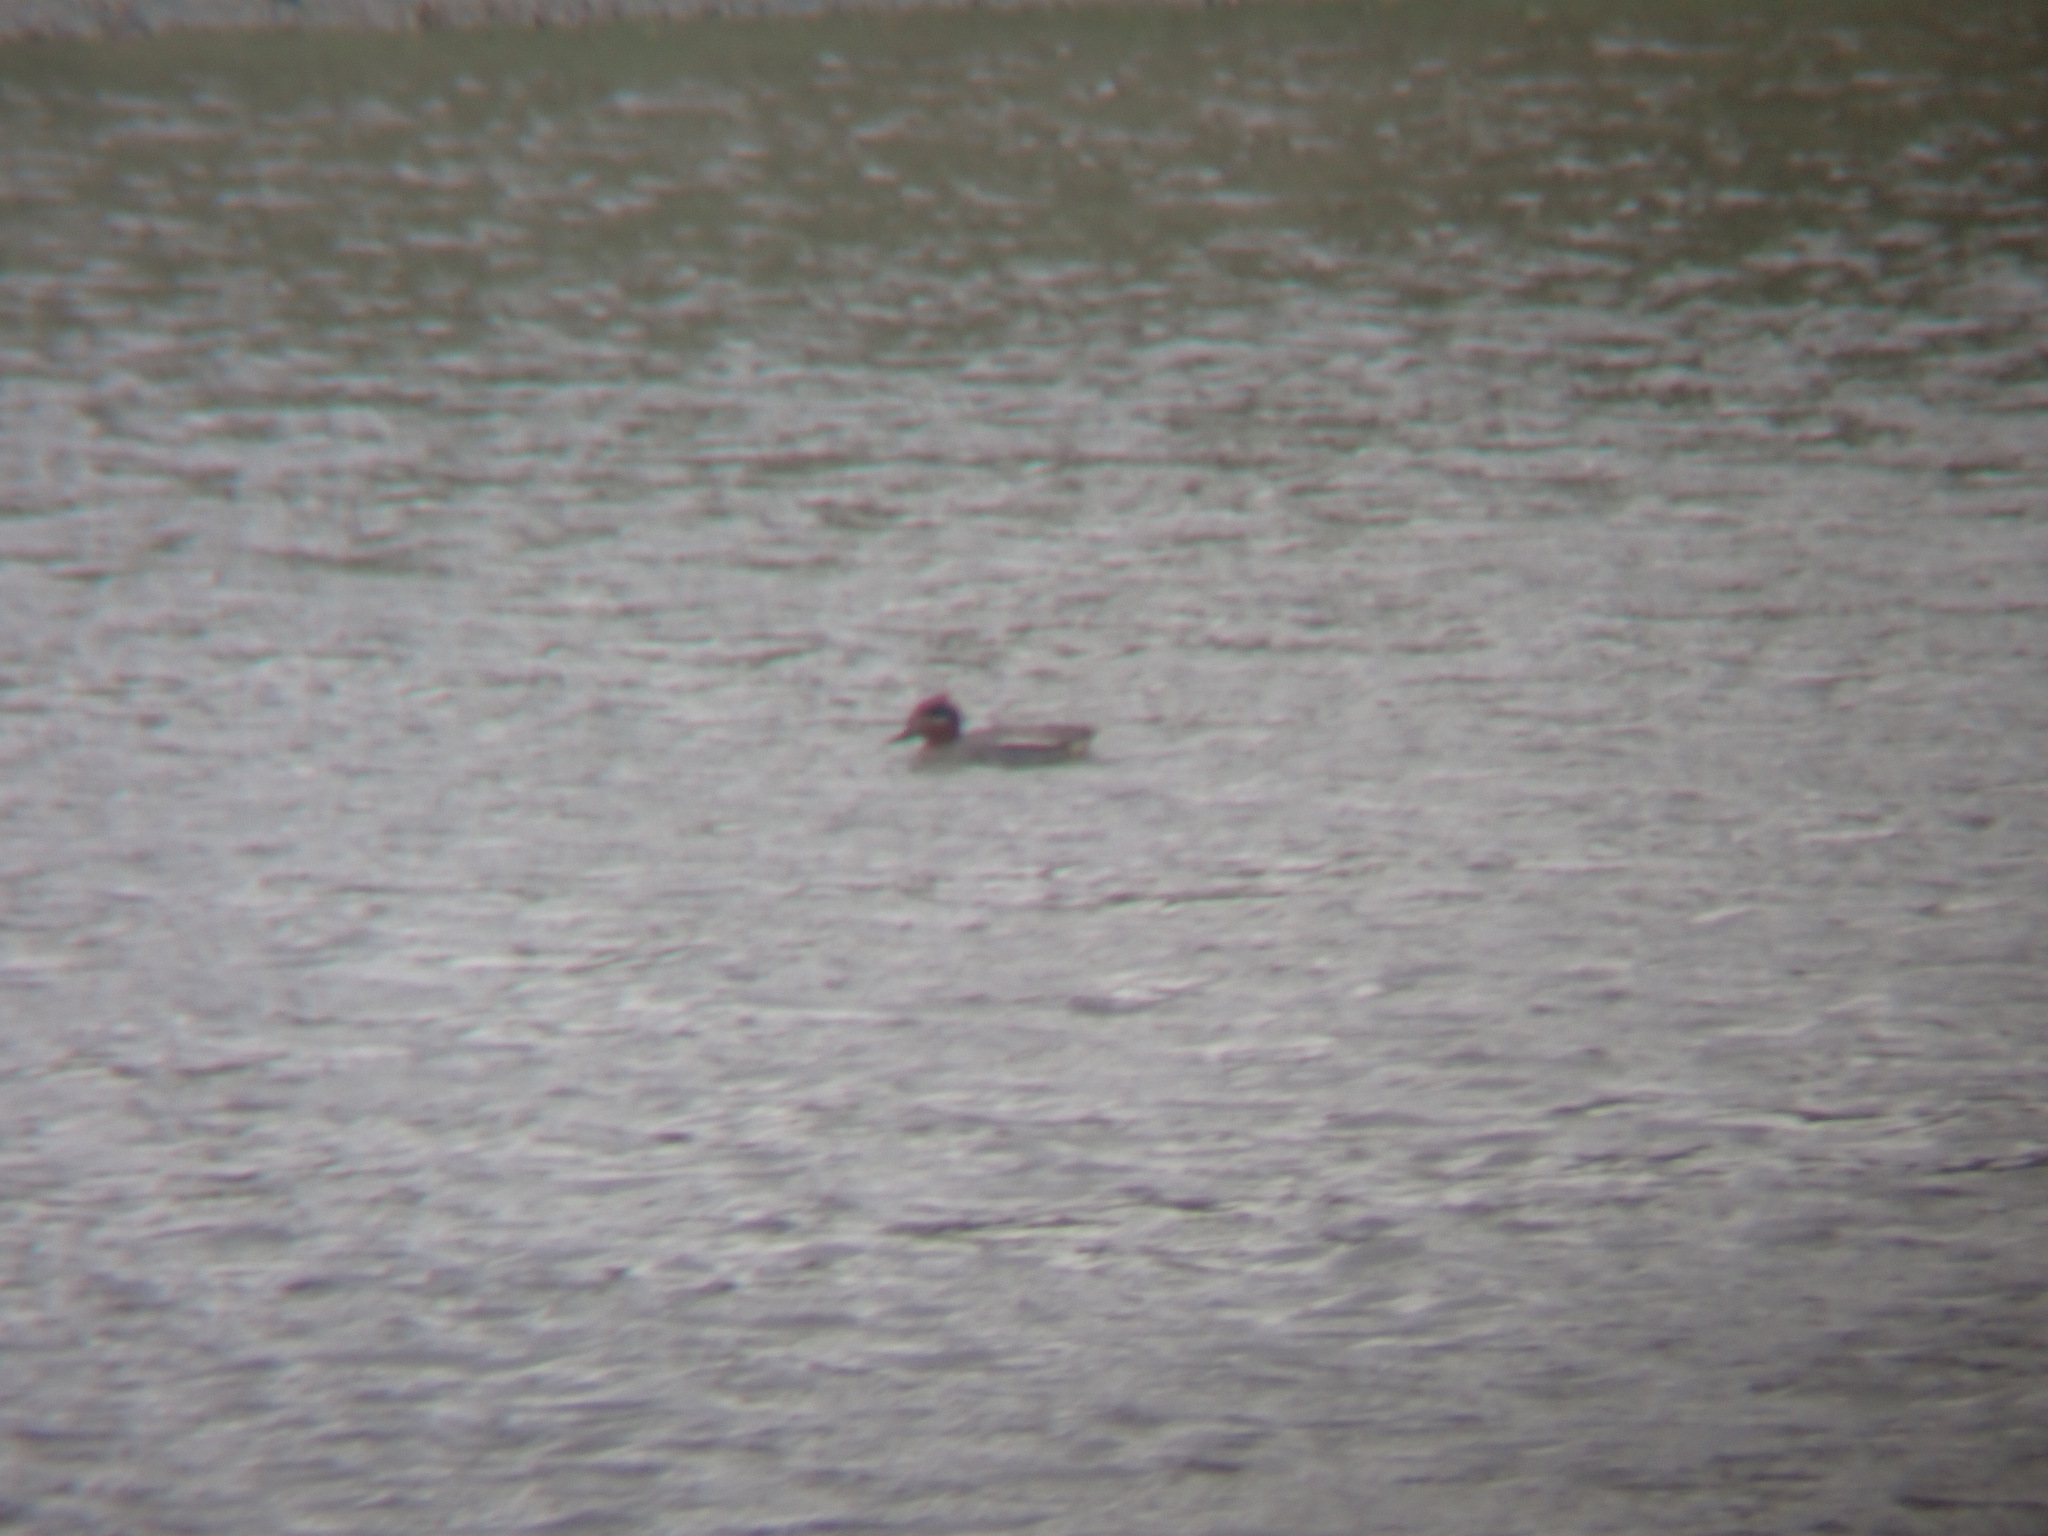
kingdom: Animalia
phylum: Chordata
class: Aves
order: Anseriformes
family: Anatidae
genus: Anas
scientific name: Anas crecca
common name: Eurasian teal
